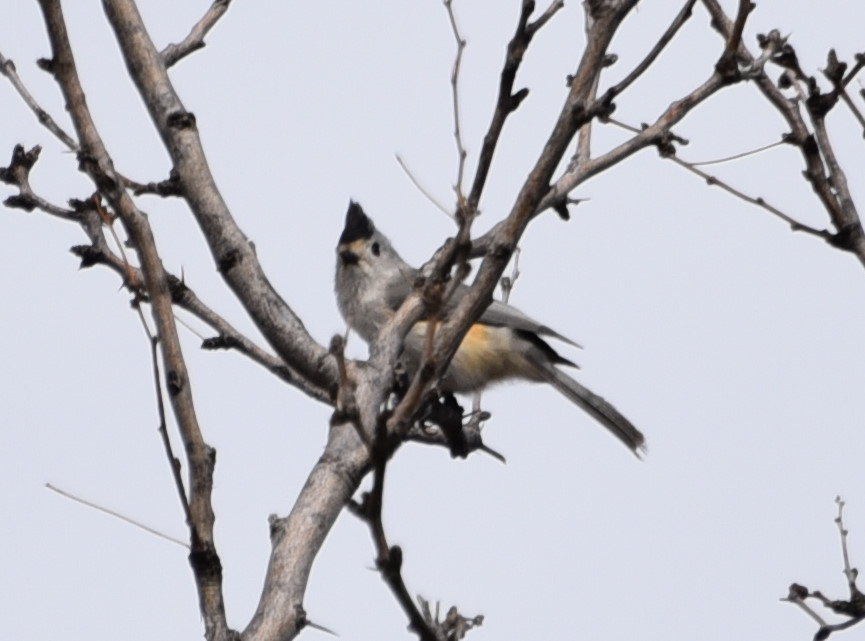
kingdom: Animalia
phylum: Chordata
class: Aves
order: Passeriformes
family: Paridae
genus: Baeolophus
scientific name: Baeolophus atricristatus
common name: Black-crested titmouse
